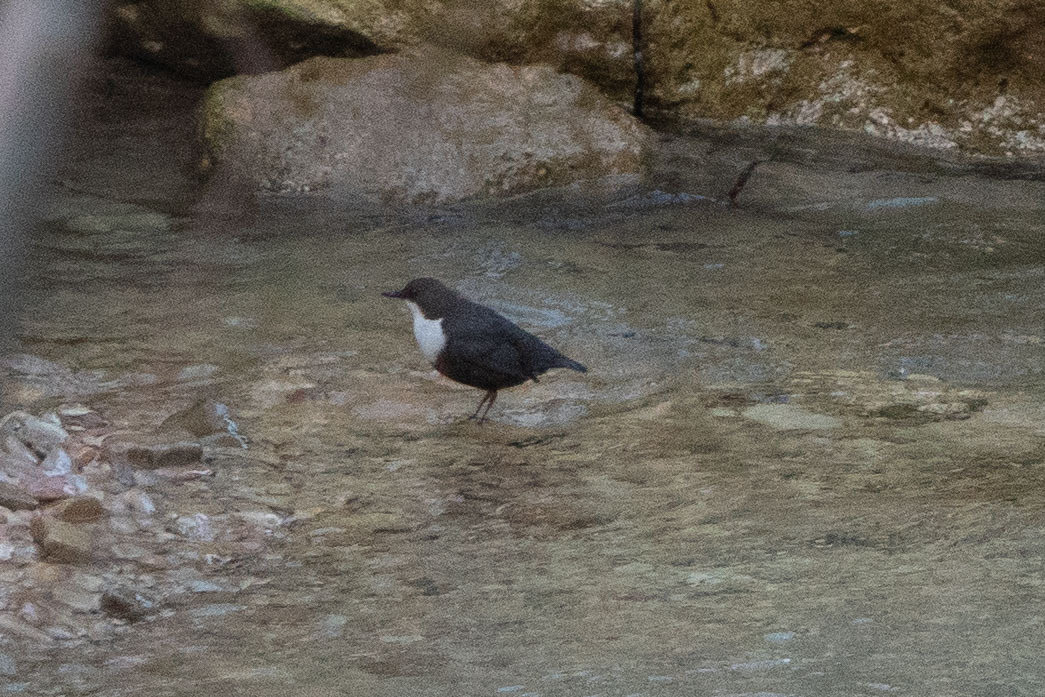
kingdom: Animalia
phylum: Chordata
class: Aves
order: Passeriformes
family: Cinclidae
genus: Cinclus
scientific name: Cinclus cinclus
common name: White-throated dipper
